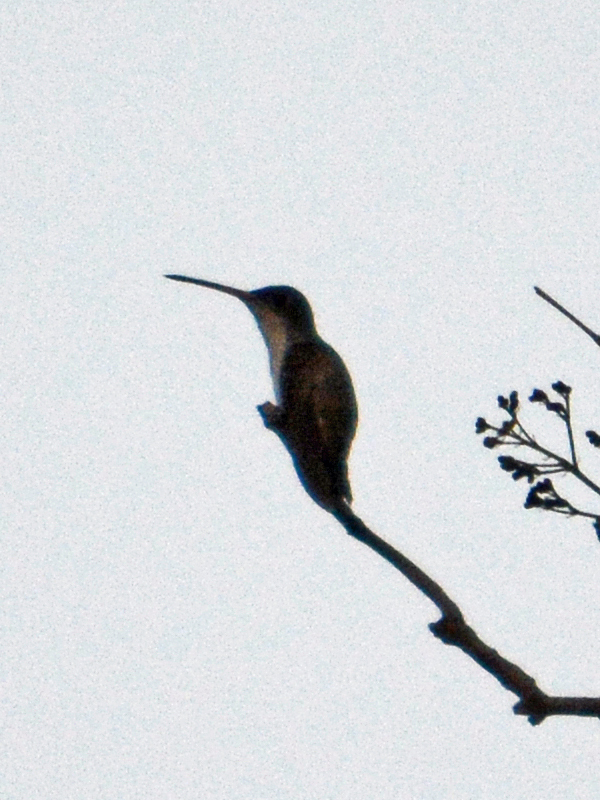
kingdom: Animalia
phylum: Chordata
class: Aves
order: Apodiformes
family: Trochilidae
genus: Leucolia
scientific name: Leucolia violiceps
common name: Violet-crowned hummingbird
